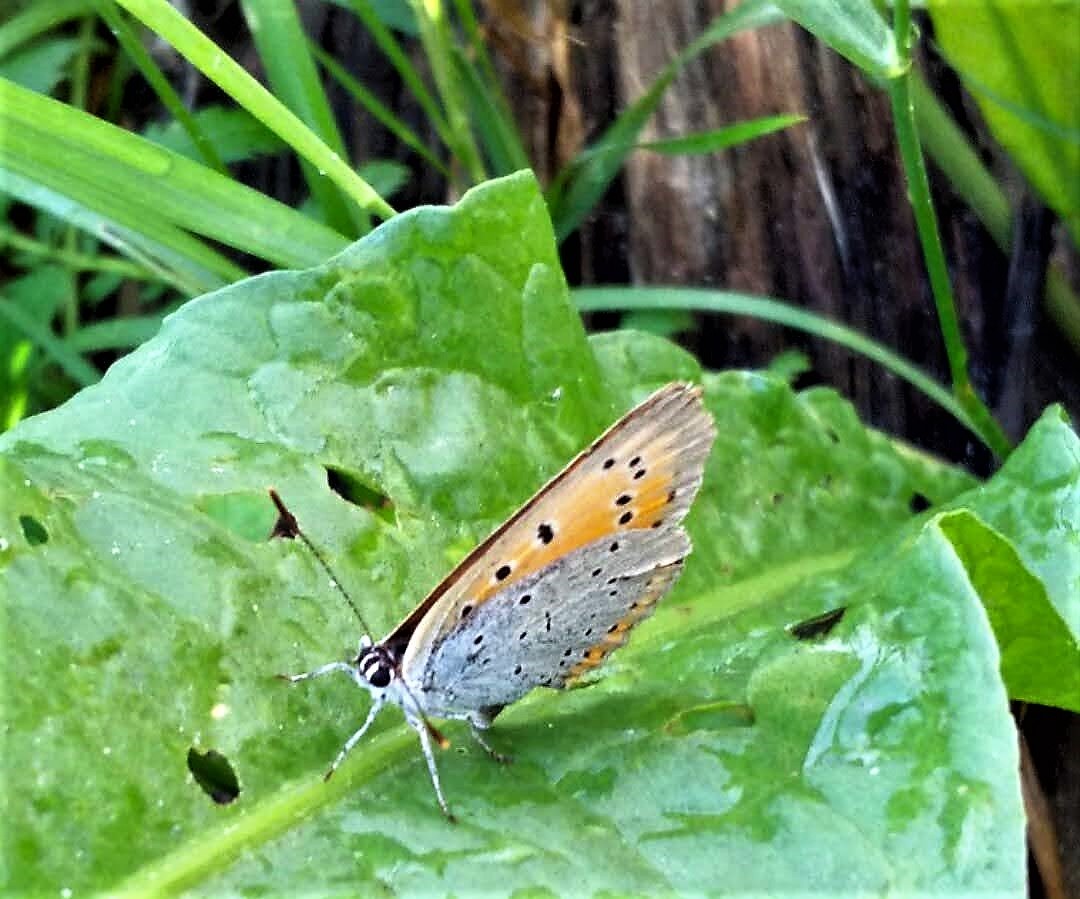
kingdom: Animalia
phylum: Arthropoda
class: Insecta
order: Lepidoptera
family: Lycaenidae
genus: Lycaena
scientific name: Lycaena dispar
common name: Large copper
